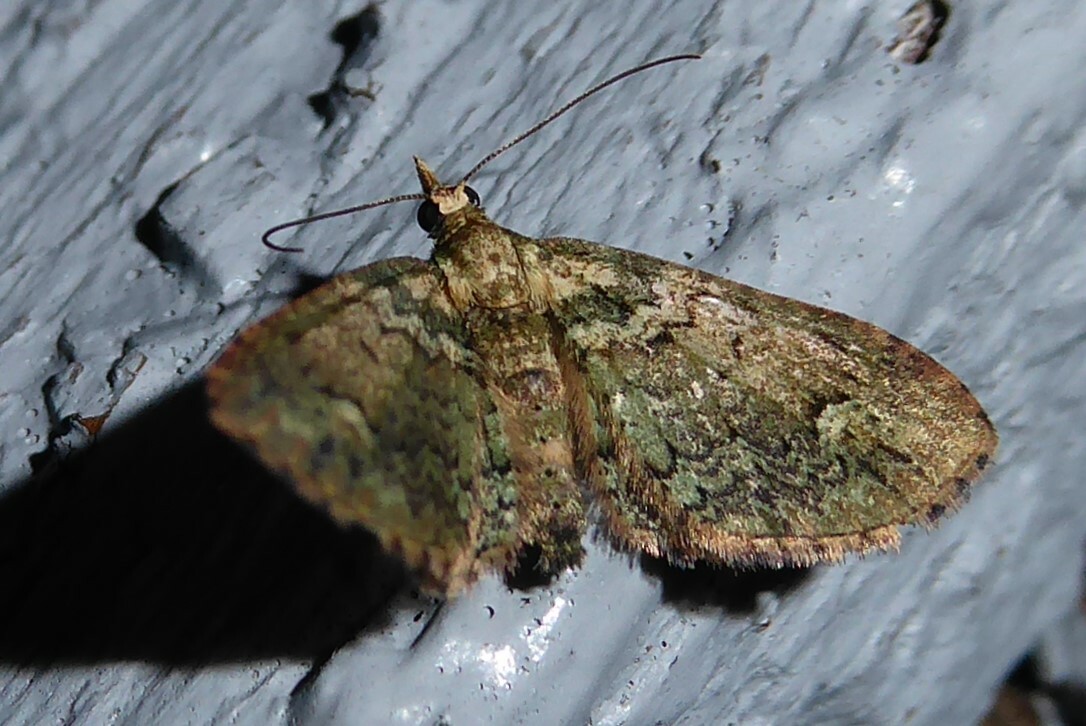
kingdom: Animalia
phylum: Arthropoda
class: Insecta
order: Lepidoptera
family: Geometridae
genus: Idaea
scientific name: Idaea mutanda
